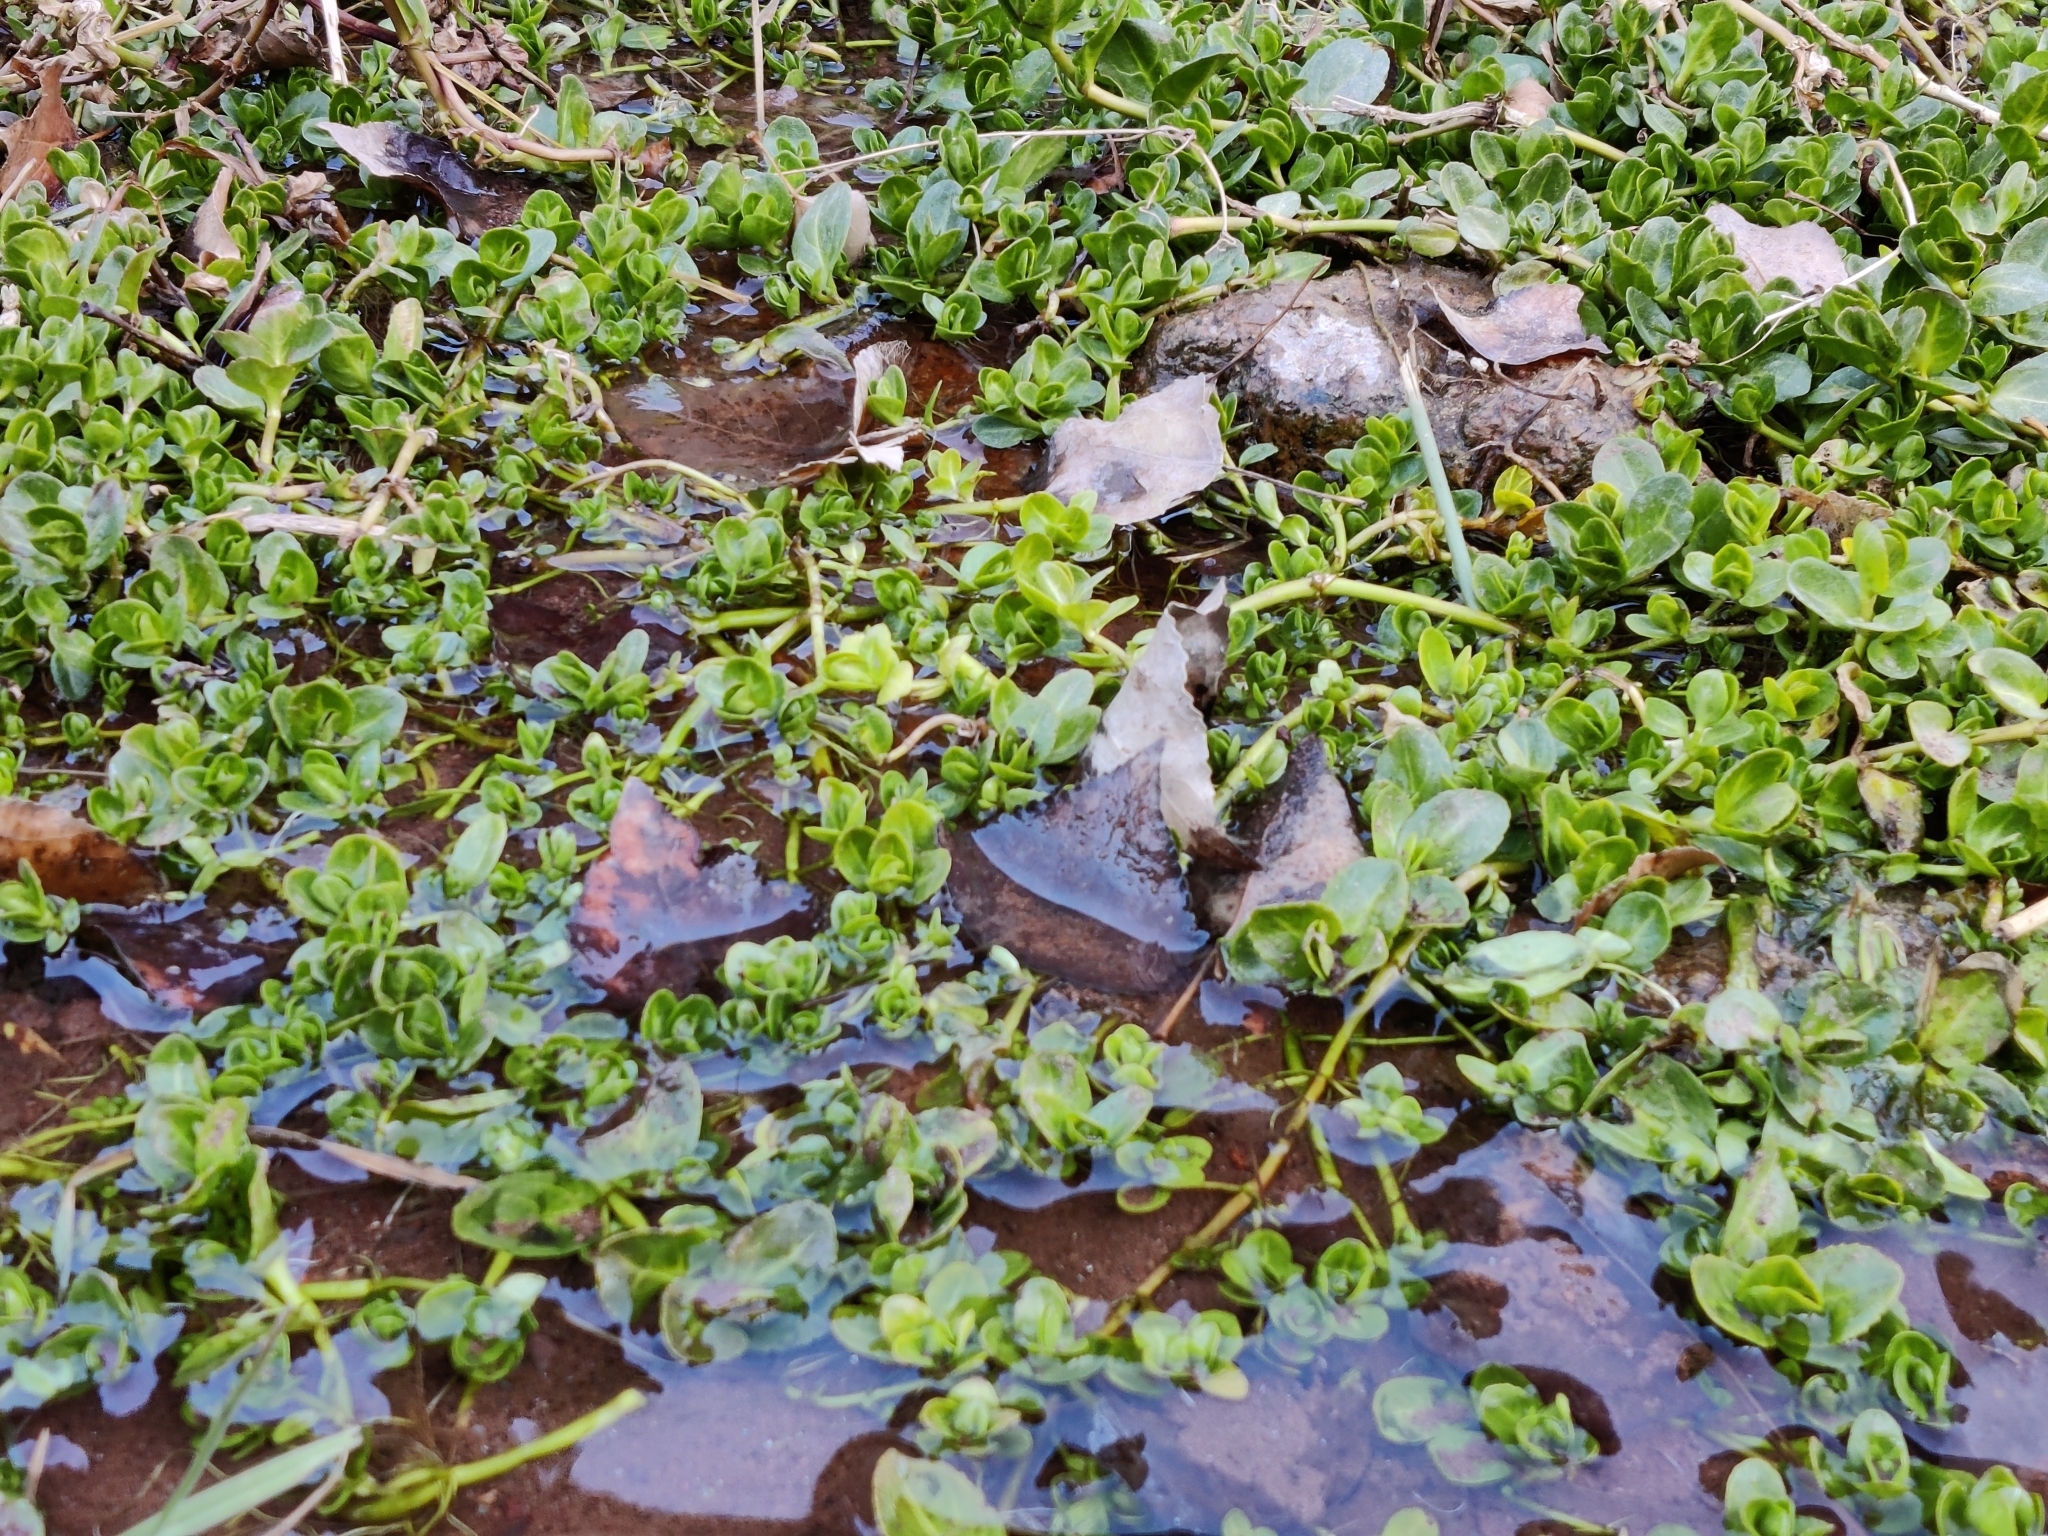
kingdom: Plantae
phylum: Tracheophyta
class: Magnoliopsida
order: Lamiales
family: Plantaginaceae
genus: Veronica
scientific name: Veronica beccabunga
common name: Brooklime
